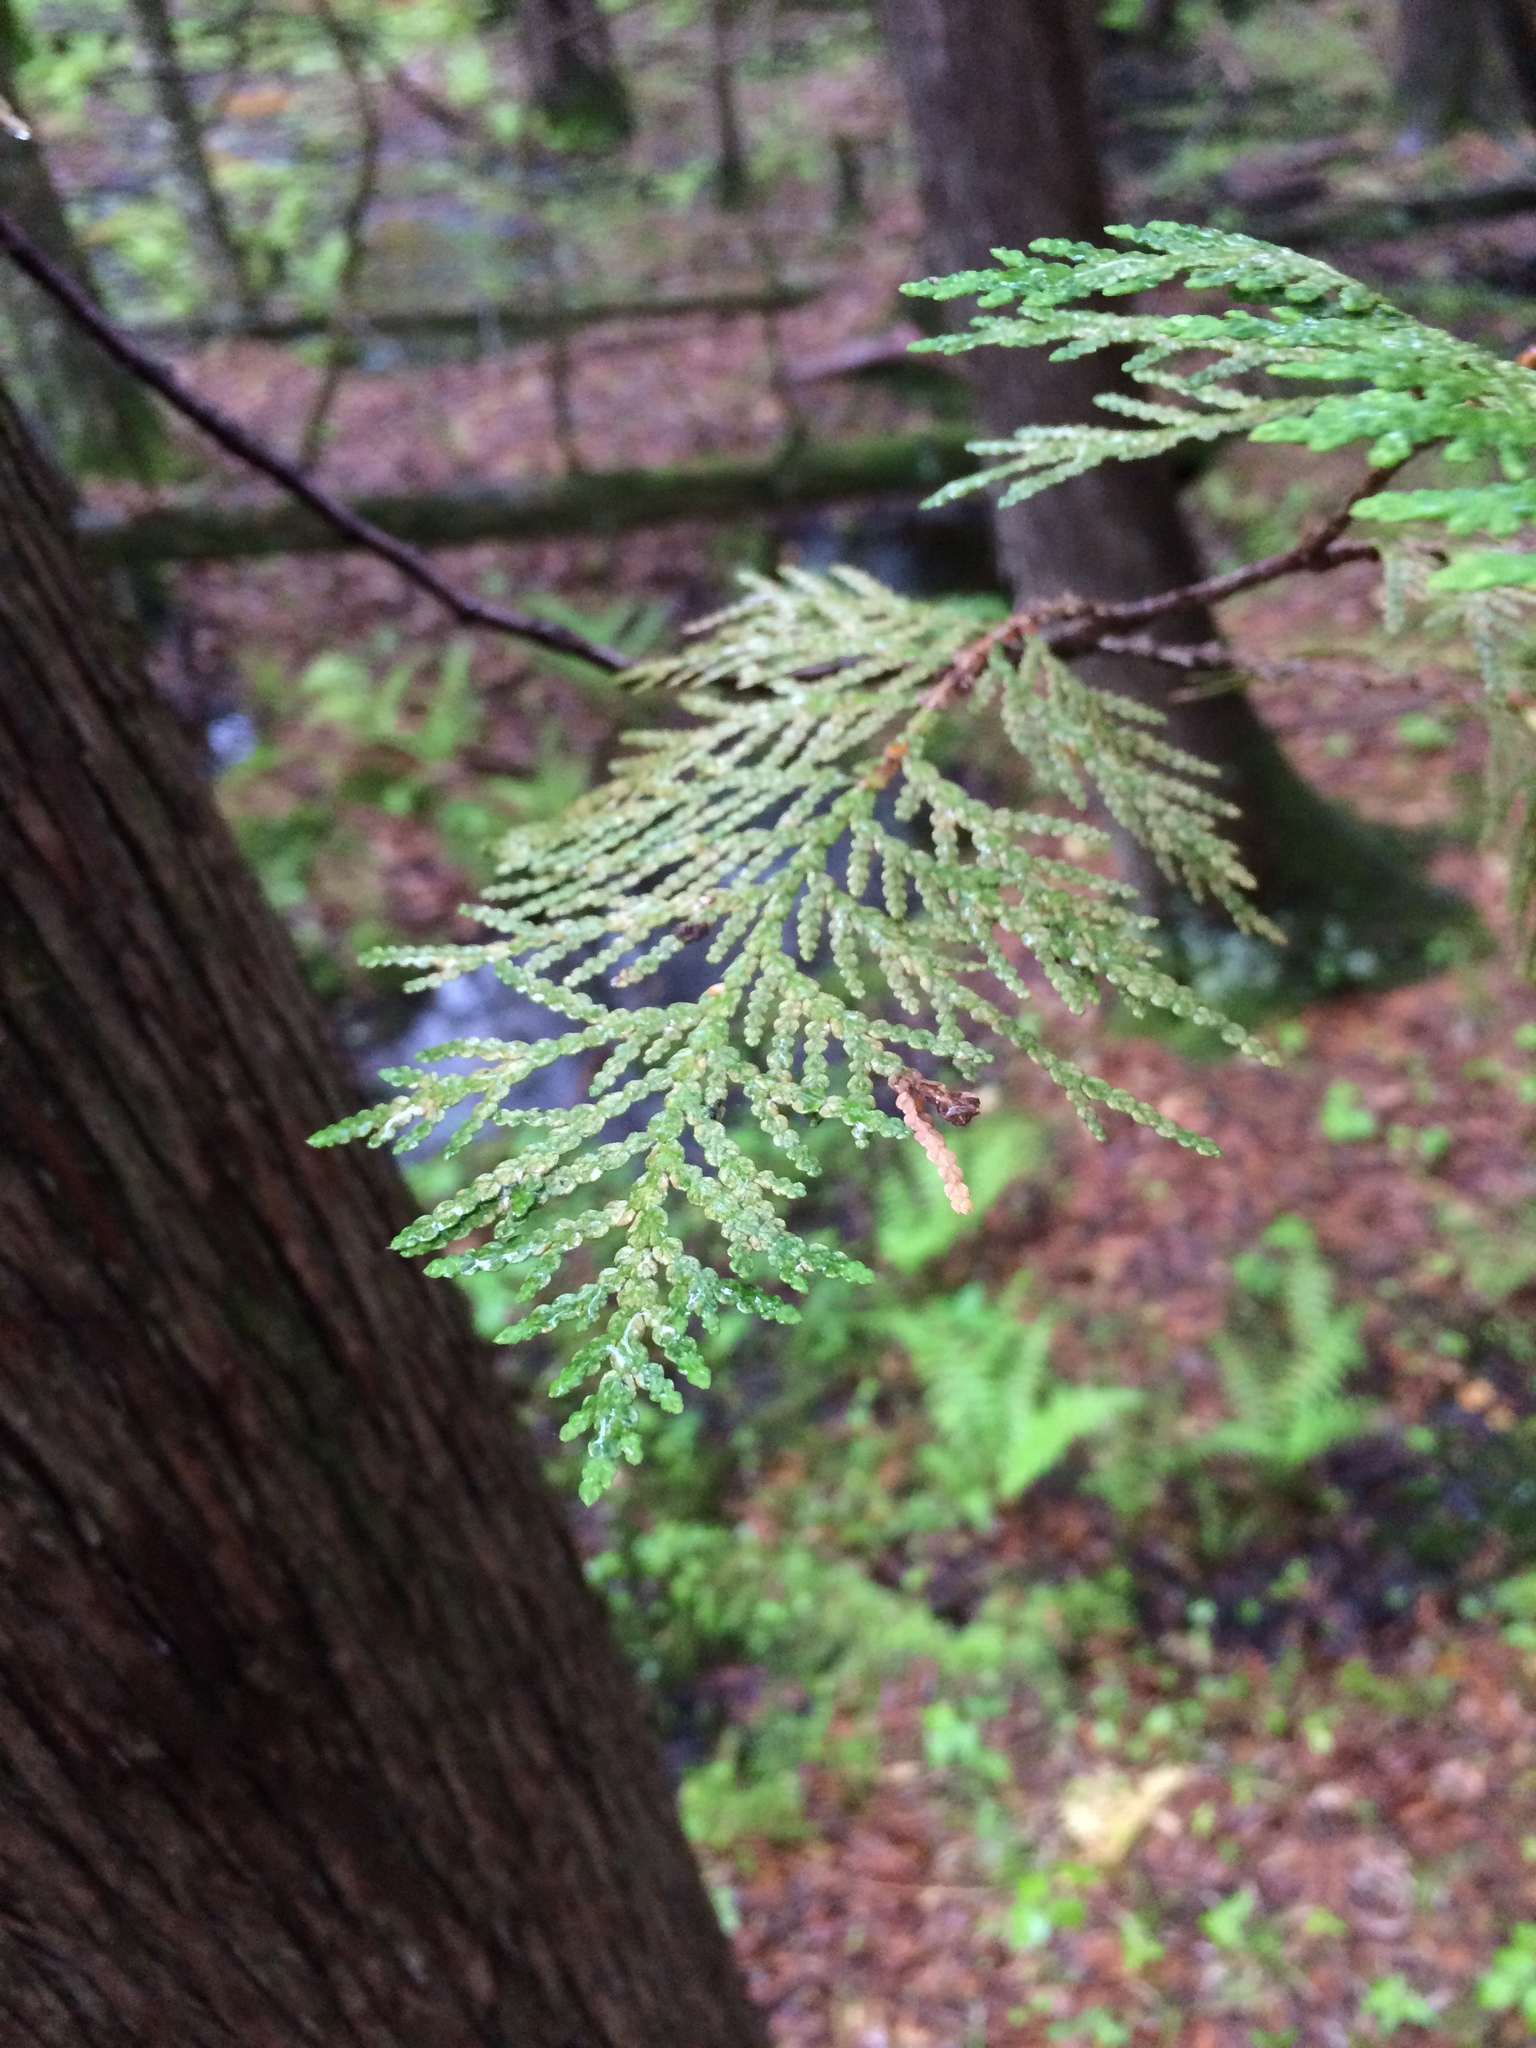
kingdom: Plantae
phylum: Tracheophyta
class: Pinopsida
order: Pinales
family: Cupressaceae
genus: Thuja
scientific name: Thuja occidentalis
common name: Northern white-cedar
